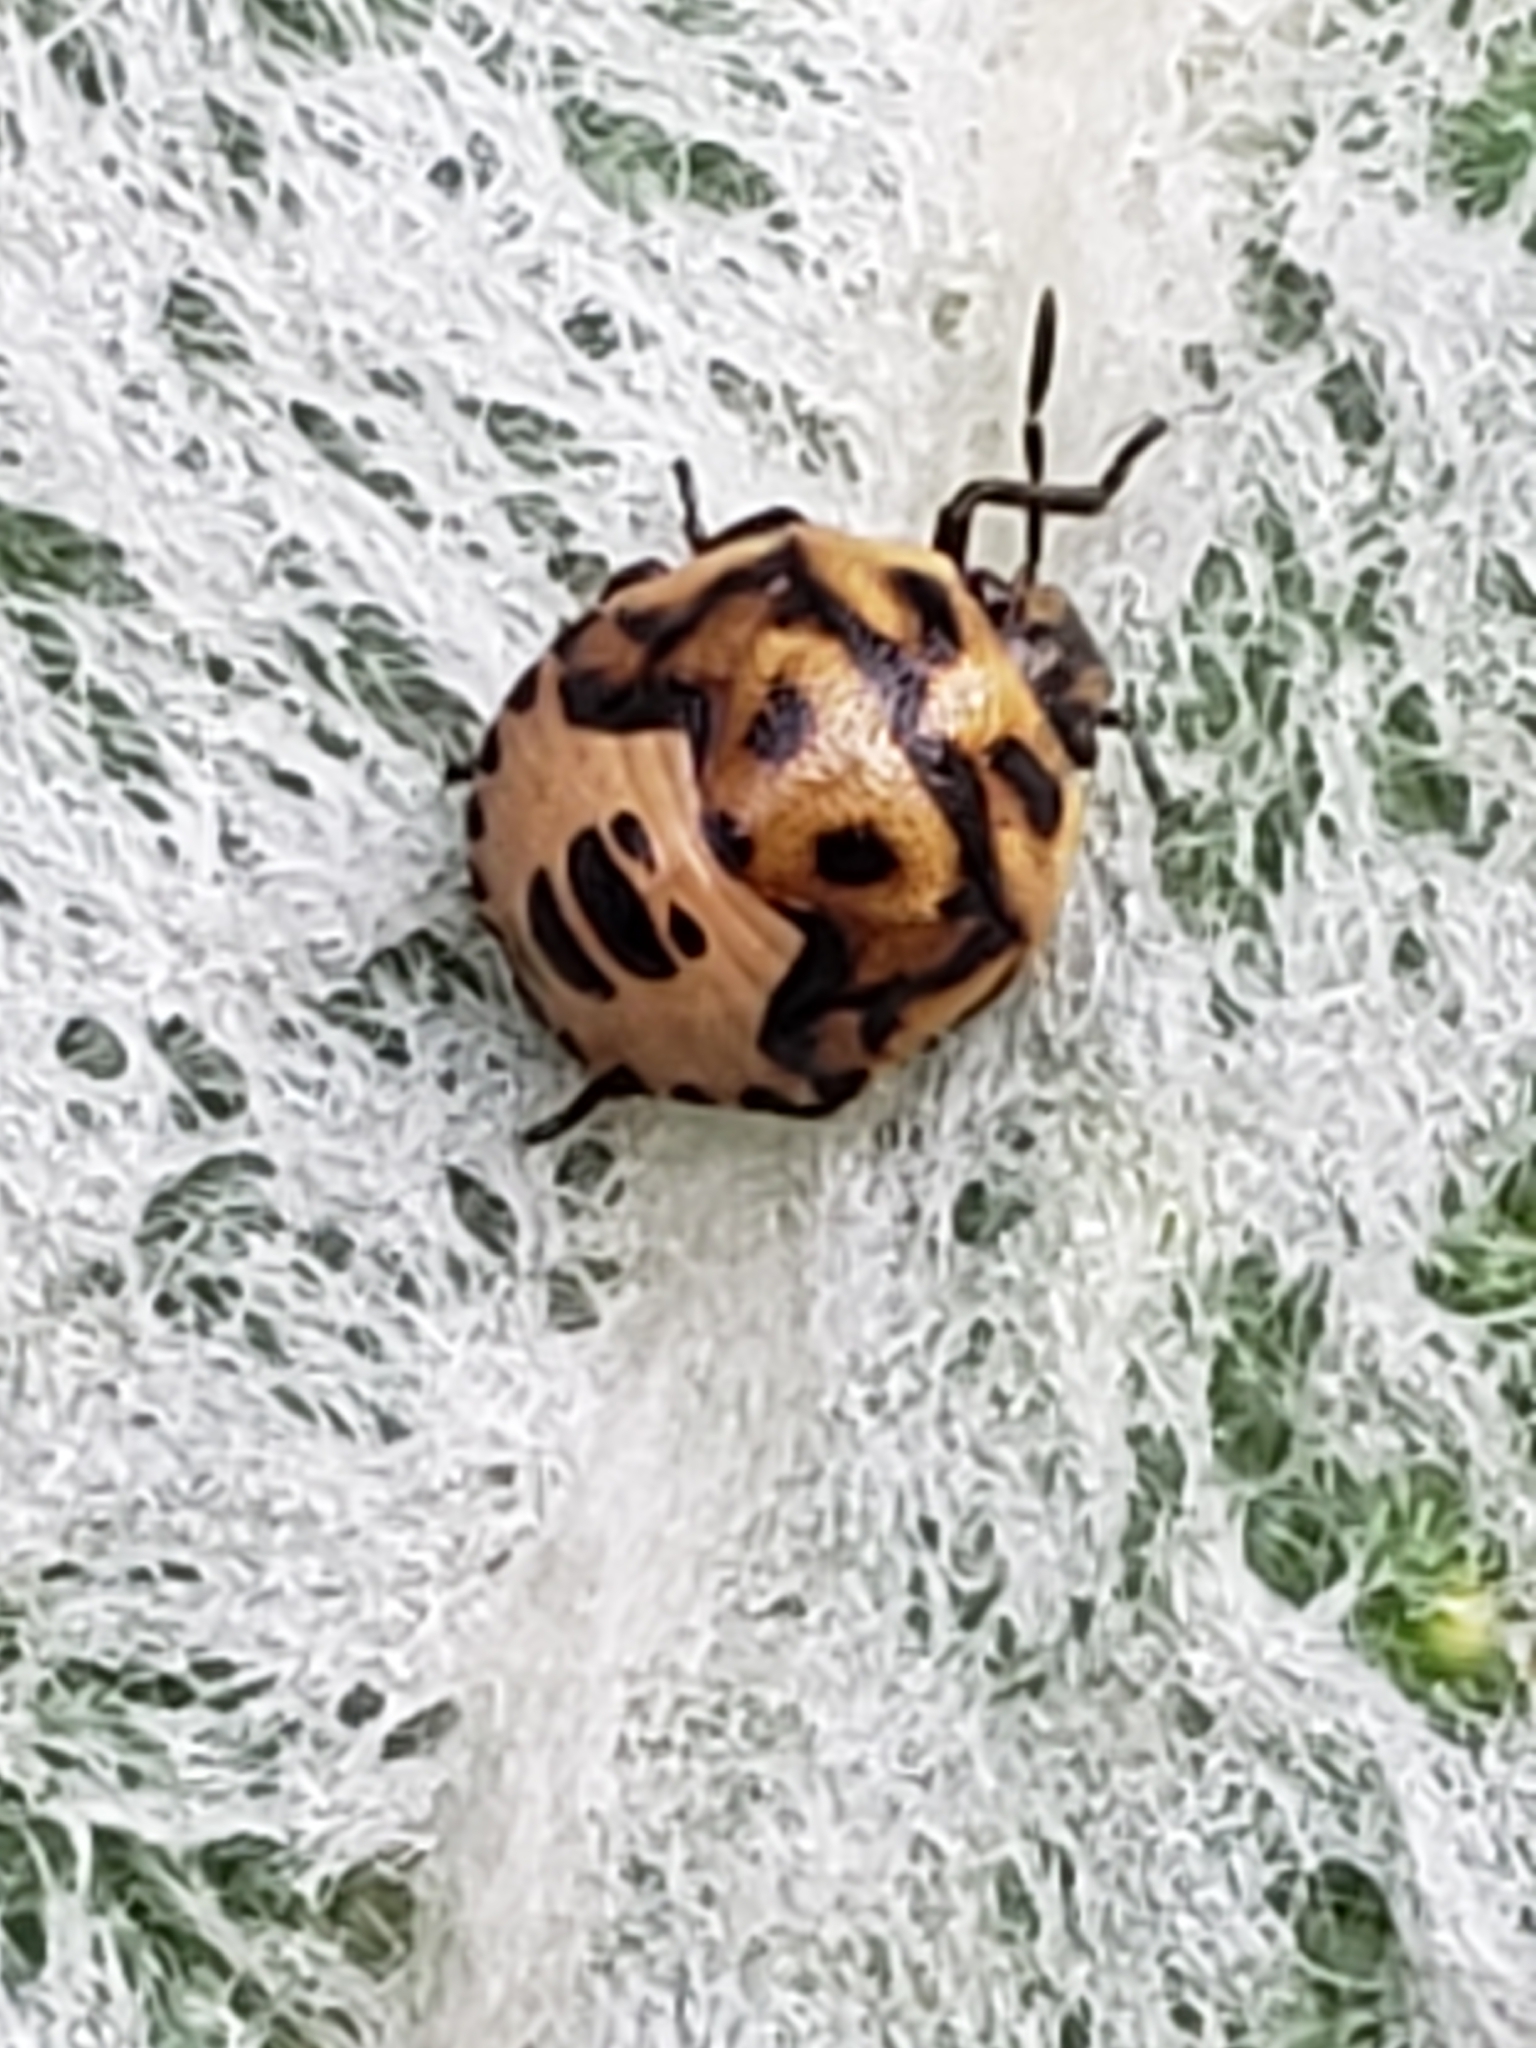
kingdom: Animalia
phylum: Arthropoda
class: Insecta
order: Hemiptera
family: Pentatomidae
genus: Cosmopepla
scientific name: Cosmopepla lintneriana
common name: Twice-stabbed stink bug
